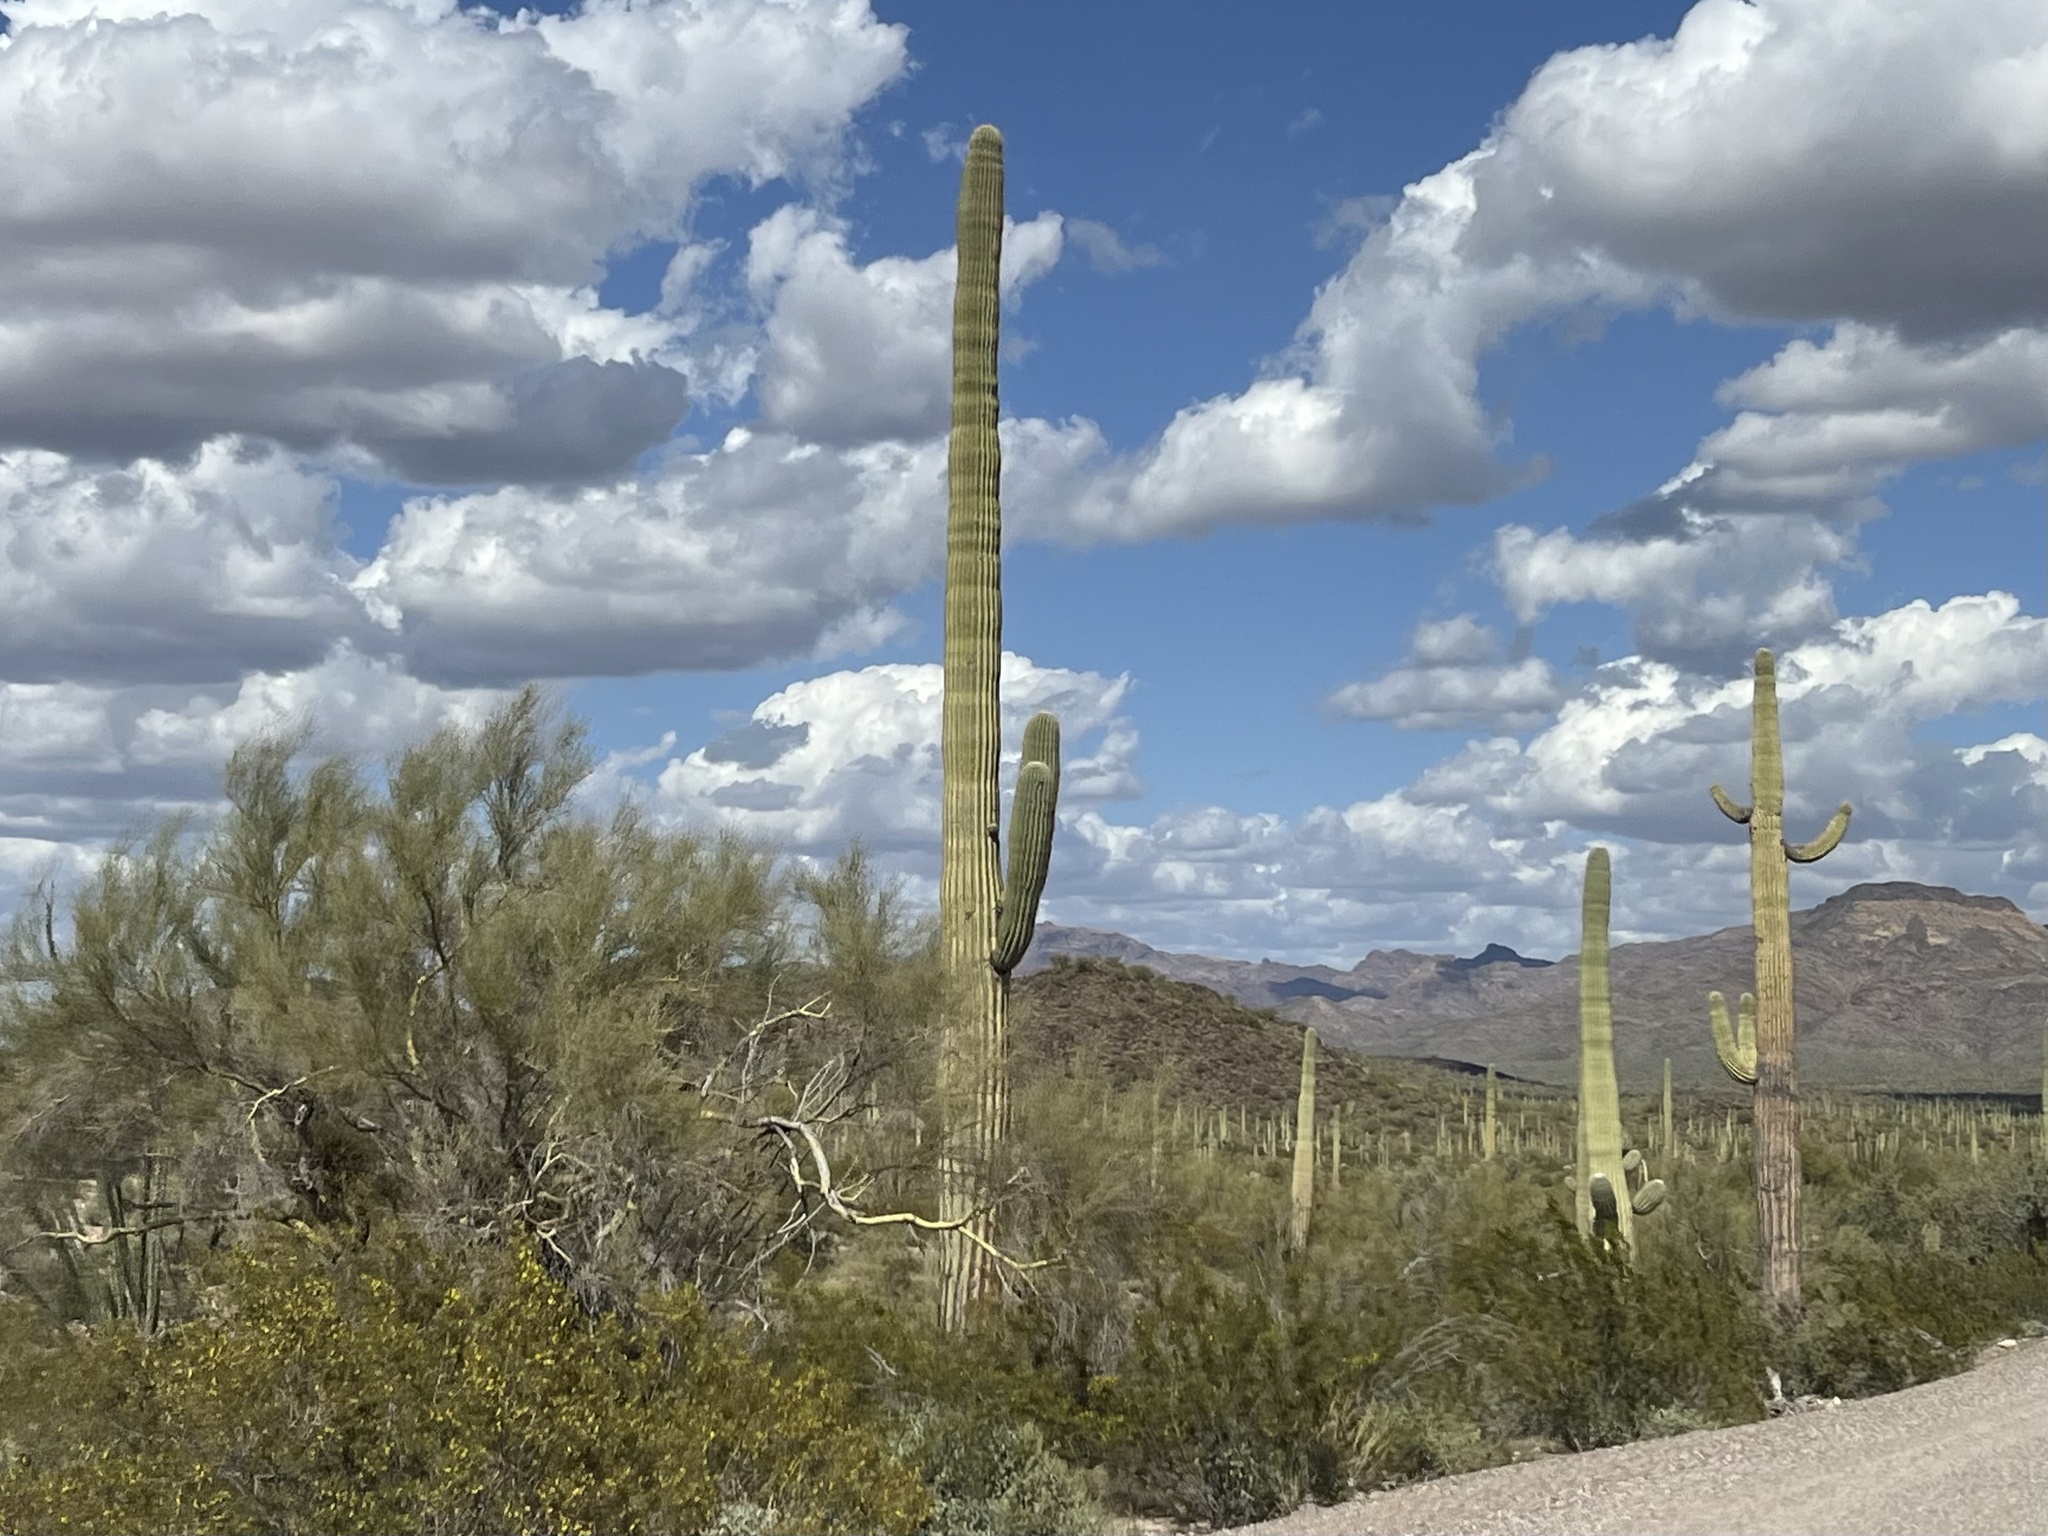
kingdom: Plantae
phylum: Tracheophyta
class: Magnoliopsida
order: Caryophyllales
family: Cactaceae
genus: Carnegiea
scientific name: Carnegiea gigantea
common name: Saguaro
